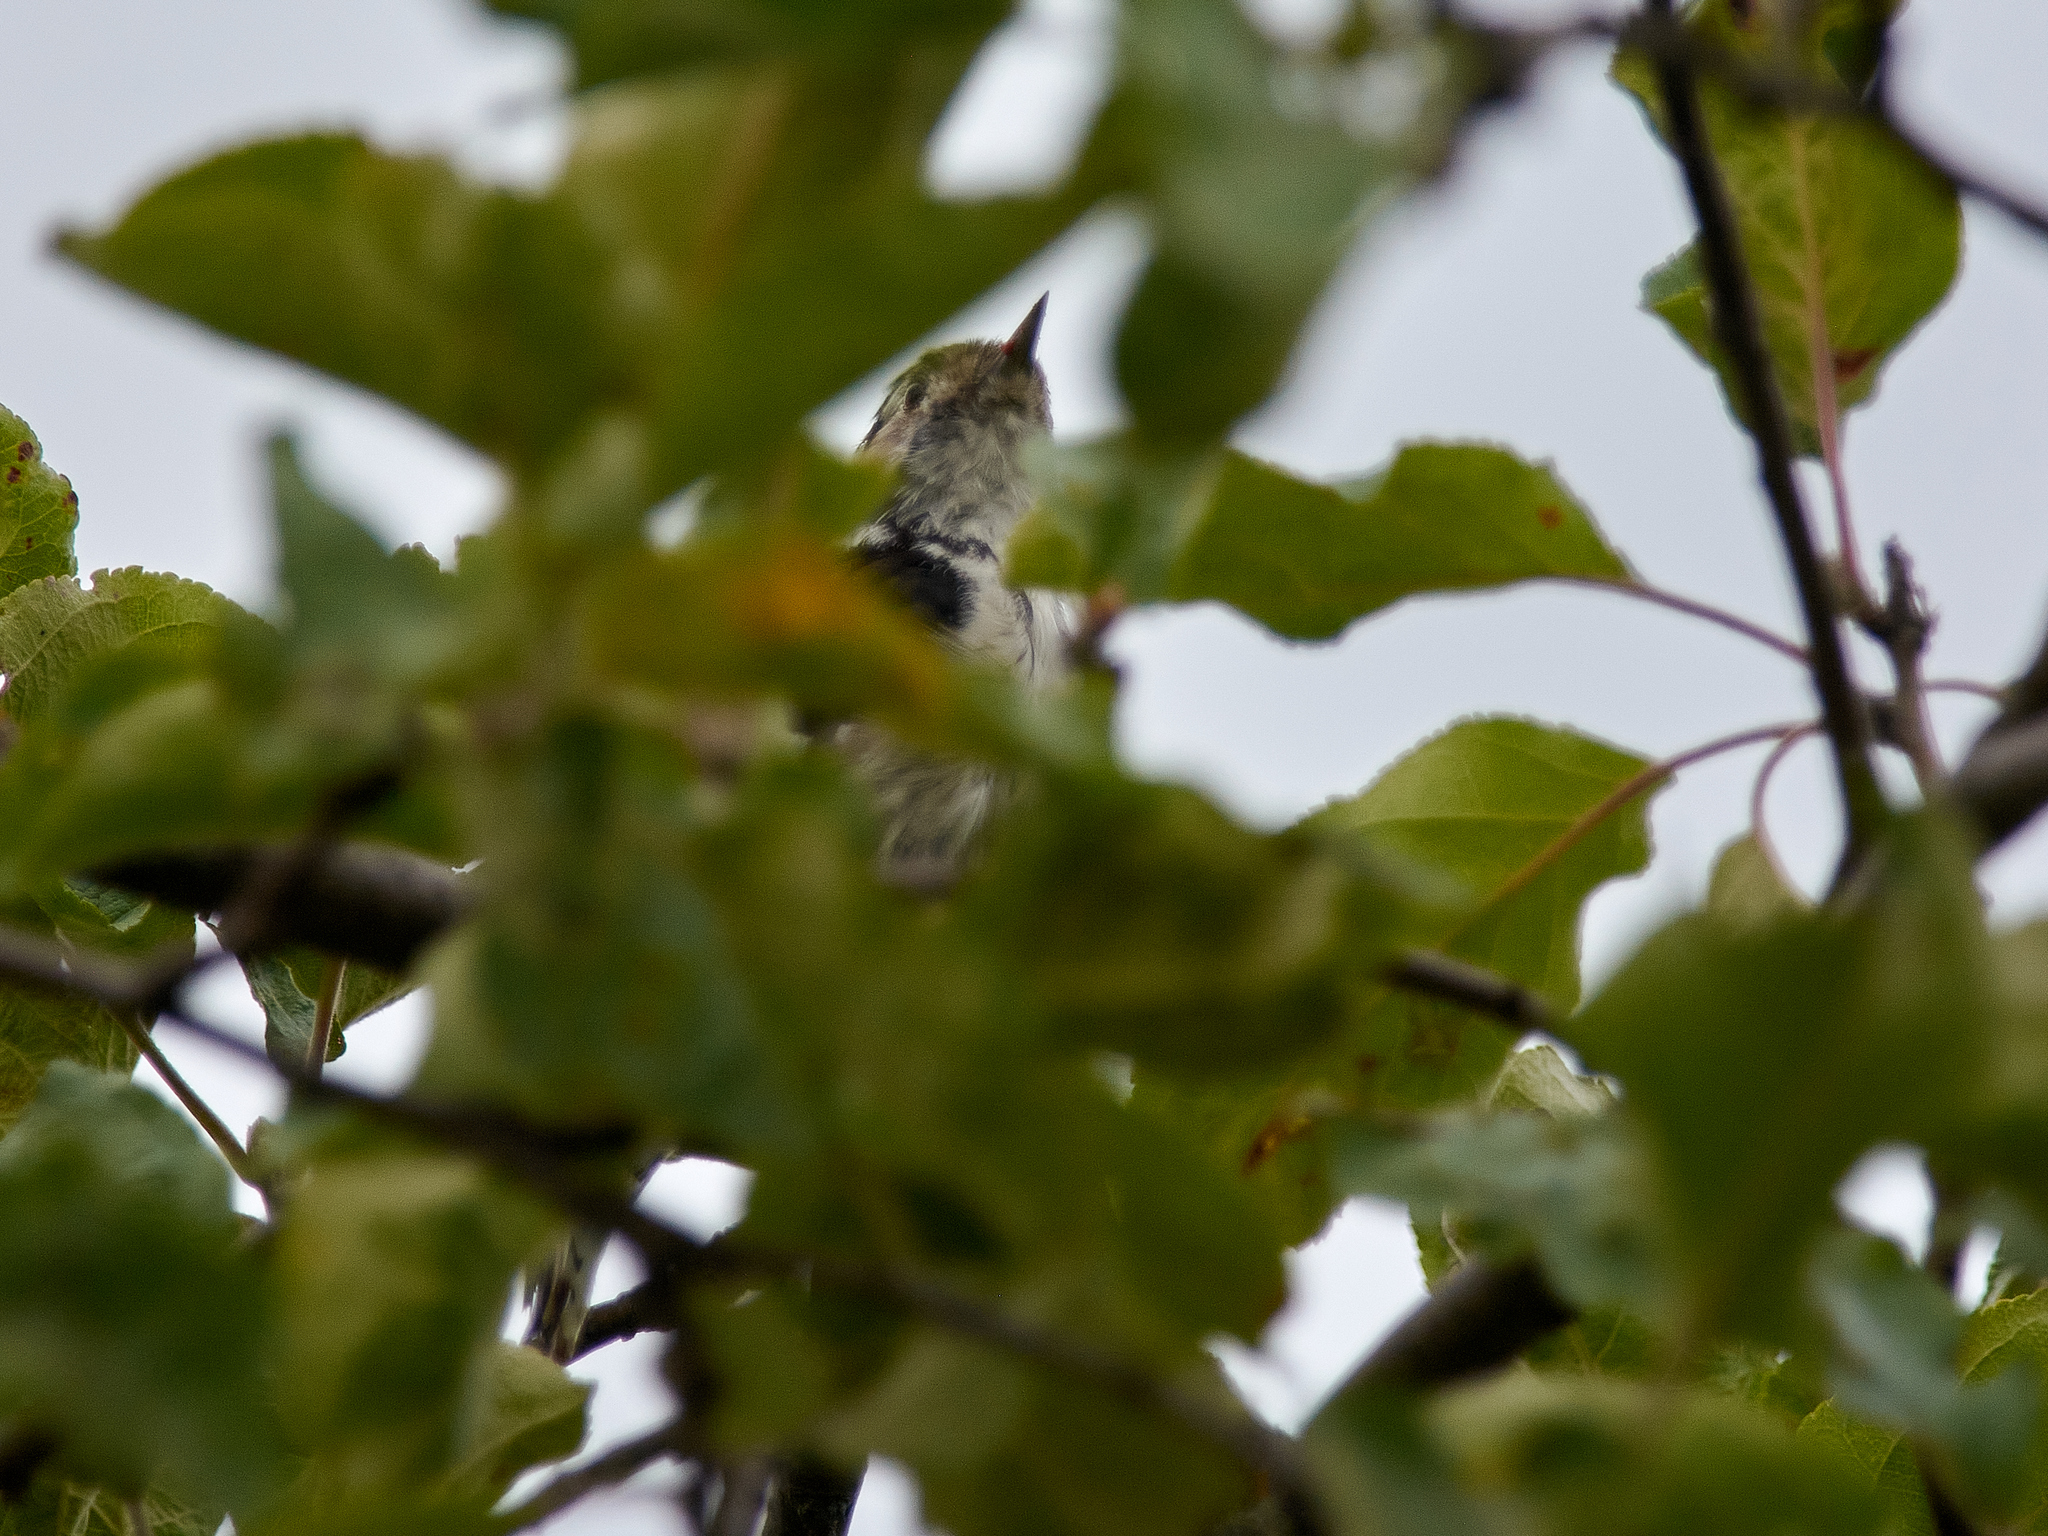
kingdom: Animalia
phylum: Chordata
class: Aves
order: Piciformes
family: Picidae
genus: Dryobates
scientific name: Dryobates minor
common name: Lesser spotted woodpecker
